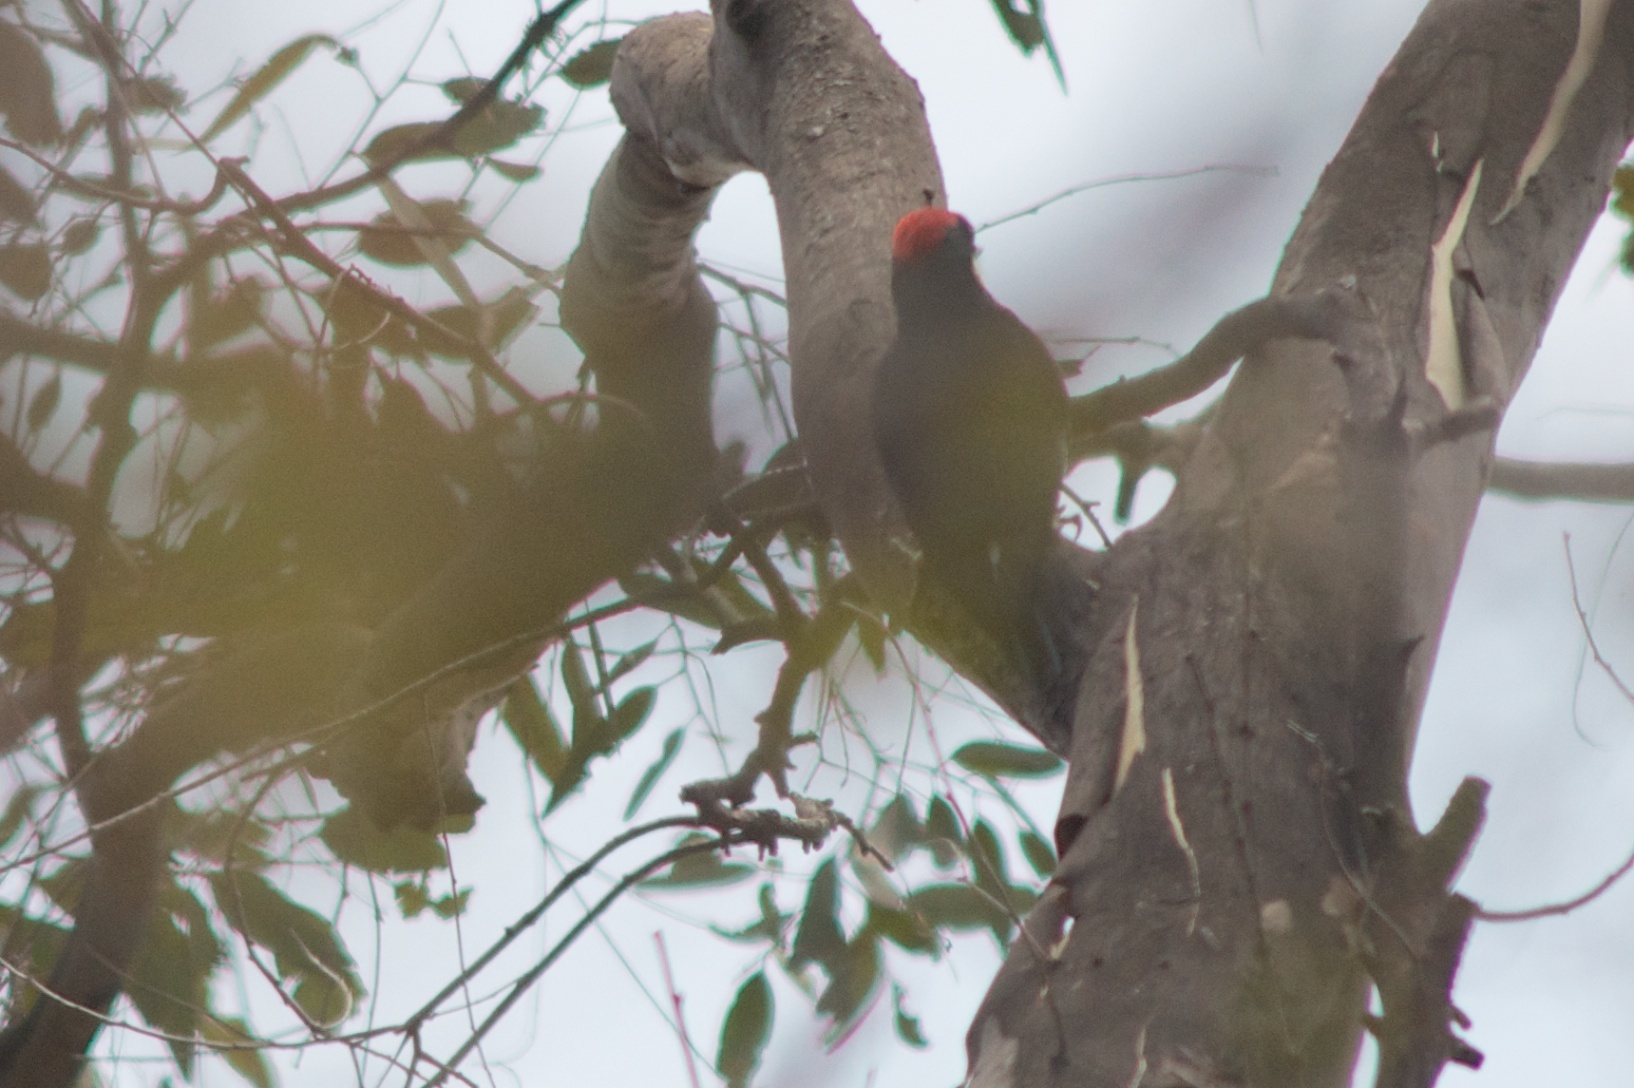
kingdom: Animalia
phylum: Chordata
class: Aves
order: Piciformes
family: Picidae
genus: Melanerpes
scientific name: Melanerpes formicivorus
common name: Acorn woodpecker
